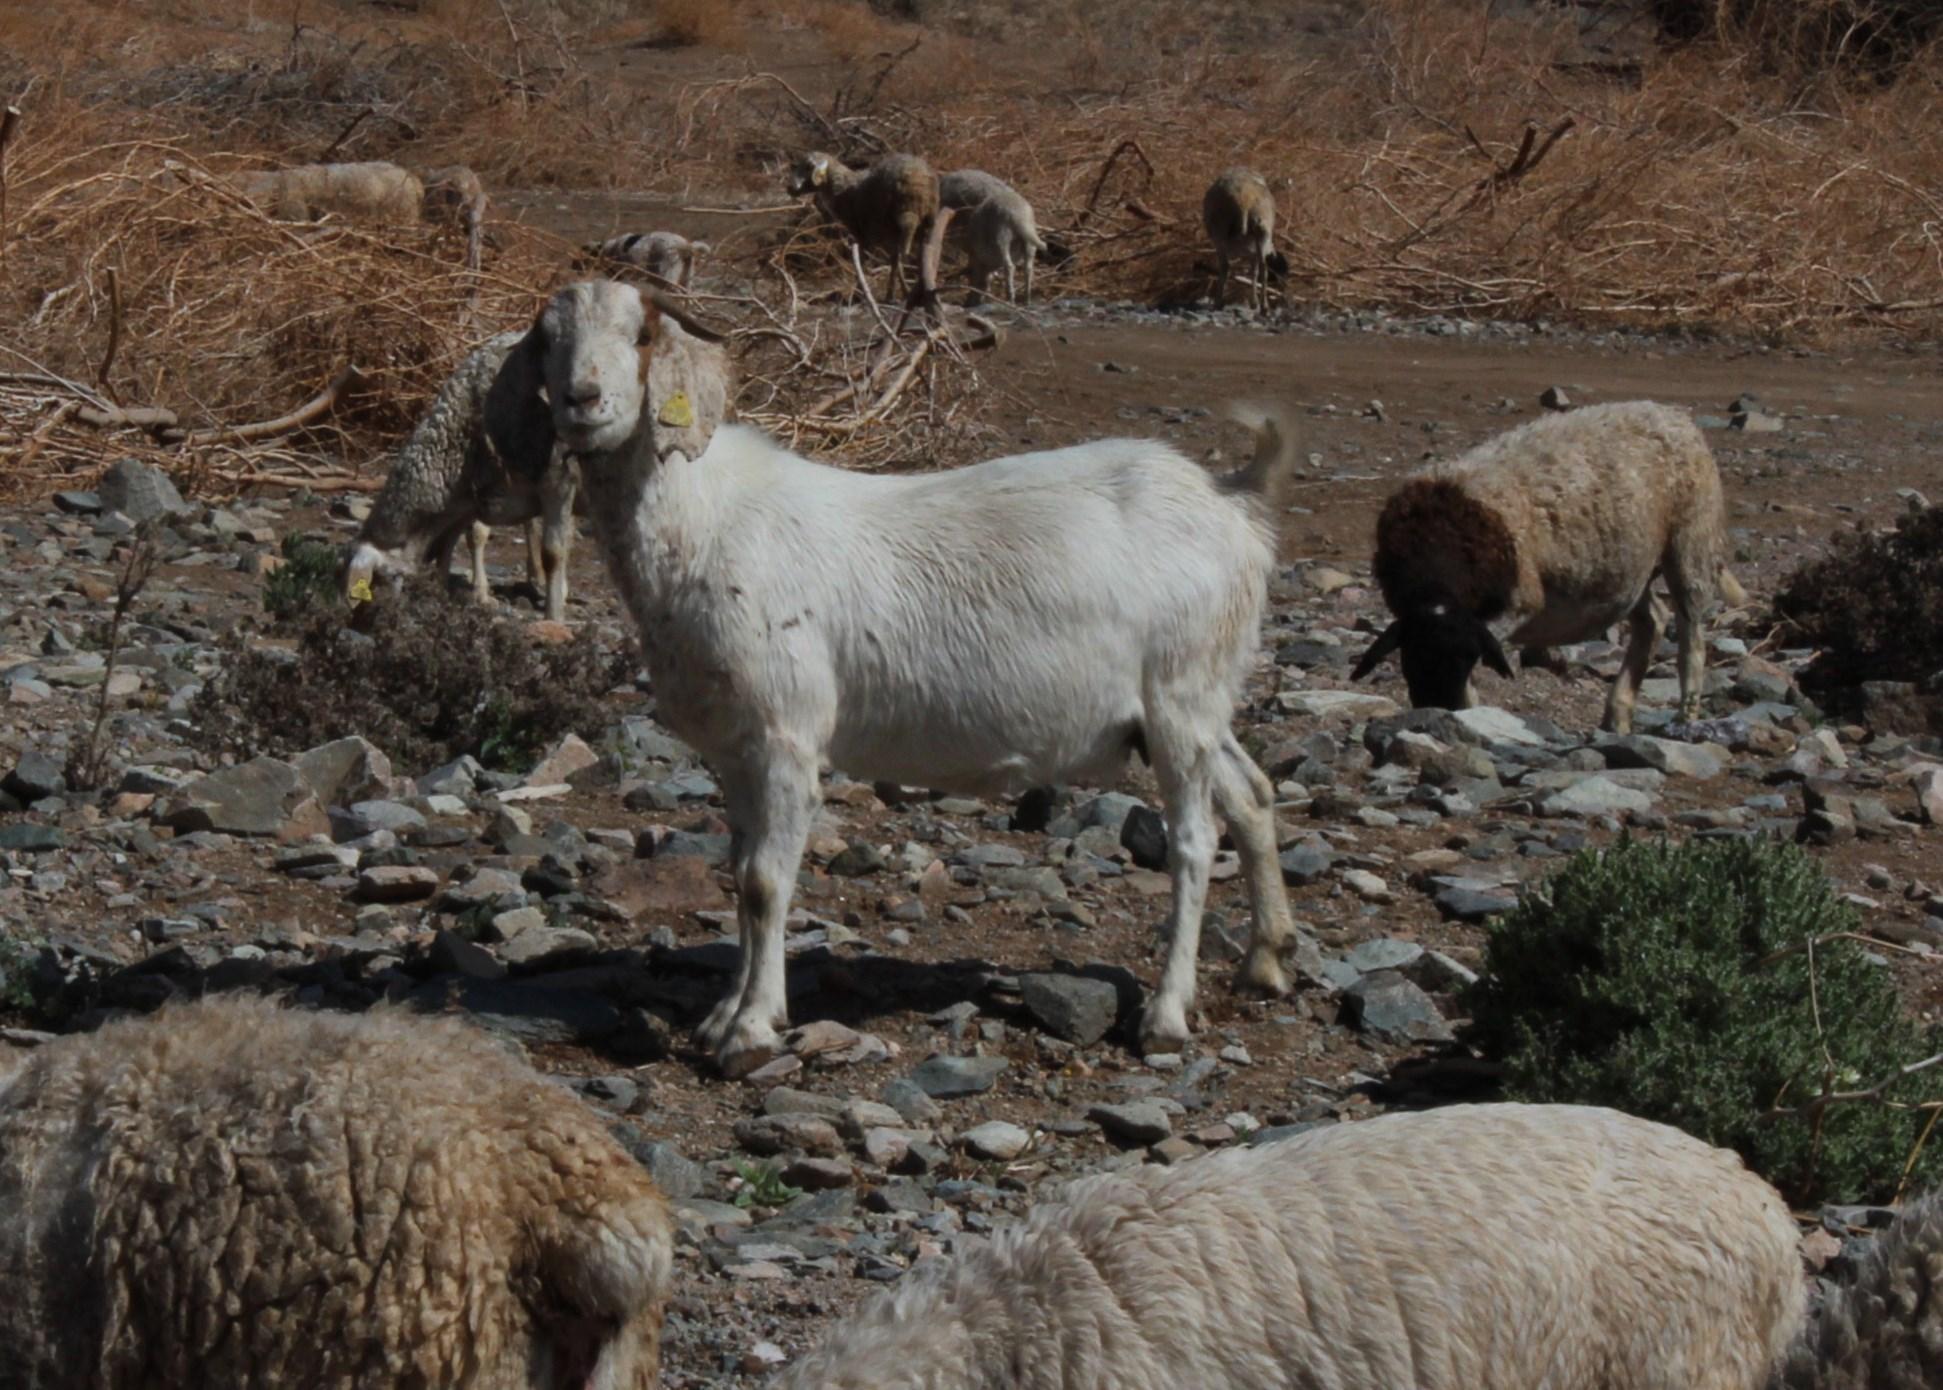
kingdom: Animalia
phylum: Chordata
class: Mammalia
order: Artiodactyla
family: Bovidae
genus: Capra
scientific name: Capra hircus
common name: Domestic goat
